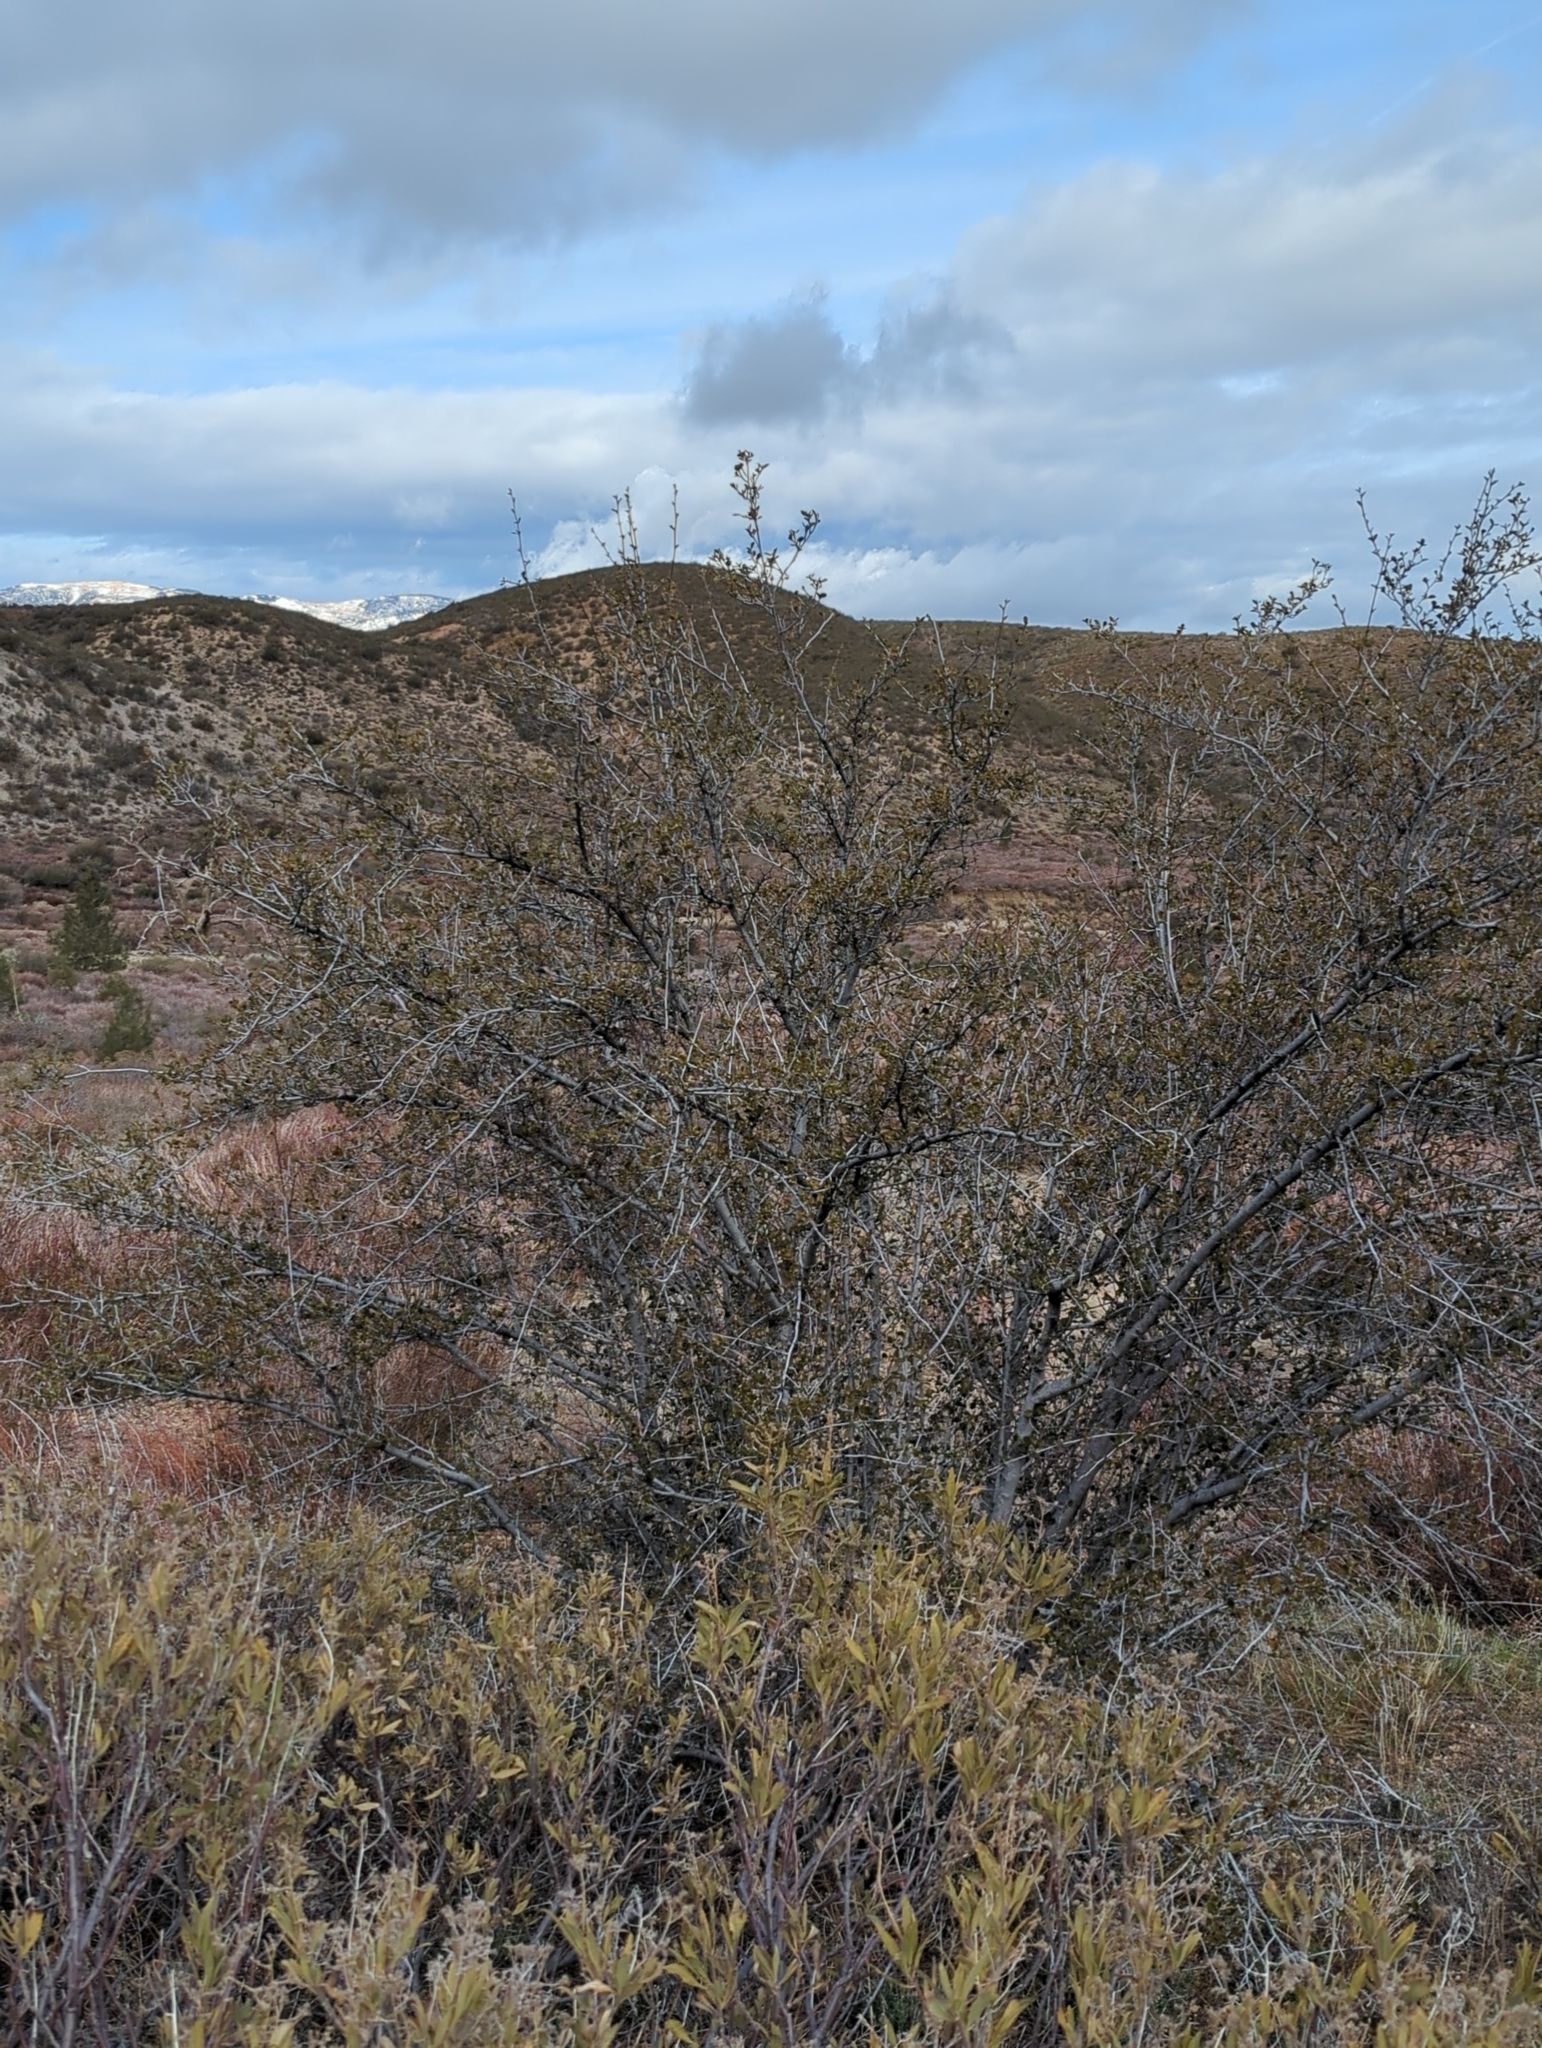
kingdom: Plantae
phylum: Tracheophyta
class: Magnoliopsida
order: Rosales
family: Rosaceae
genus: Cercocarpus
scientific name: Cercocarpus betuloides
